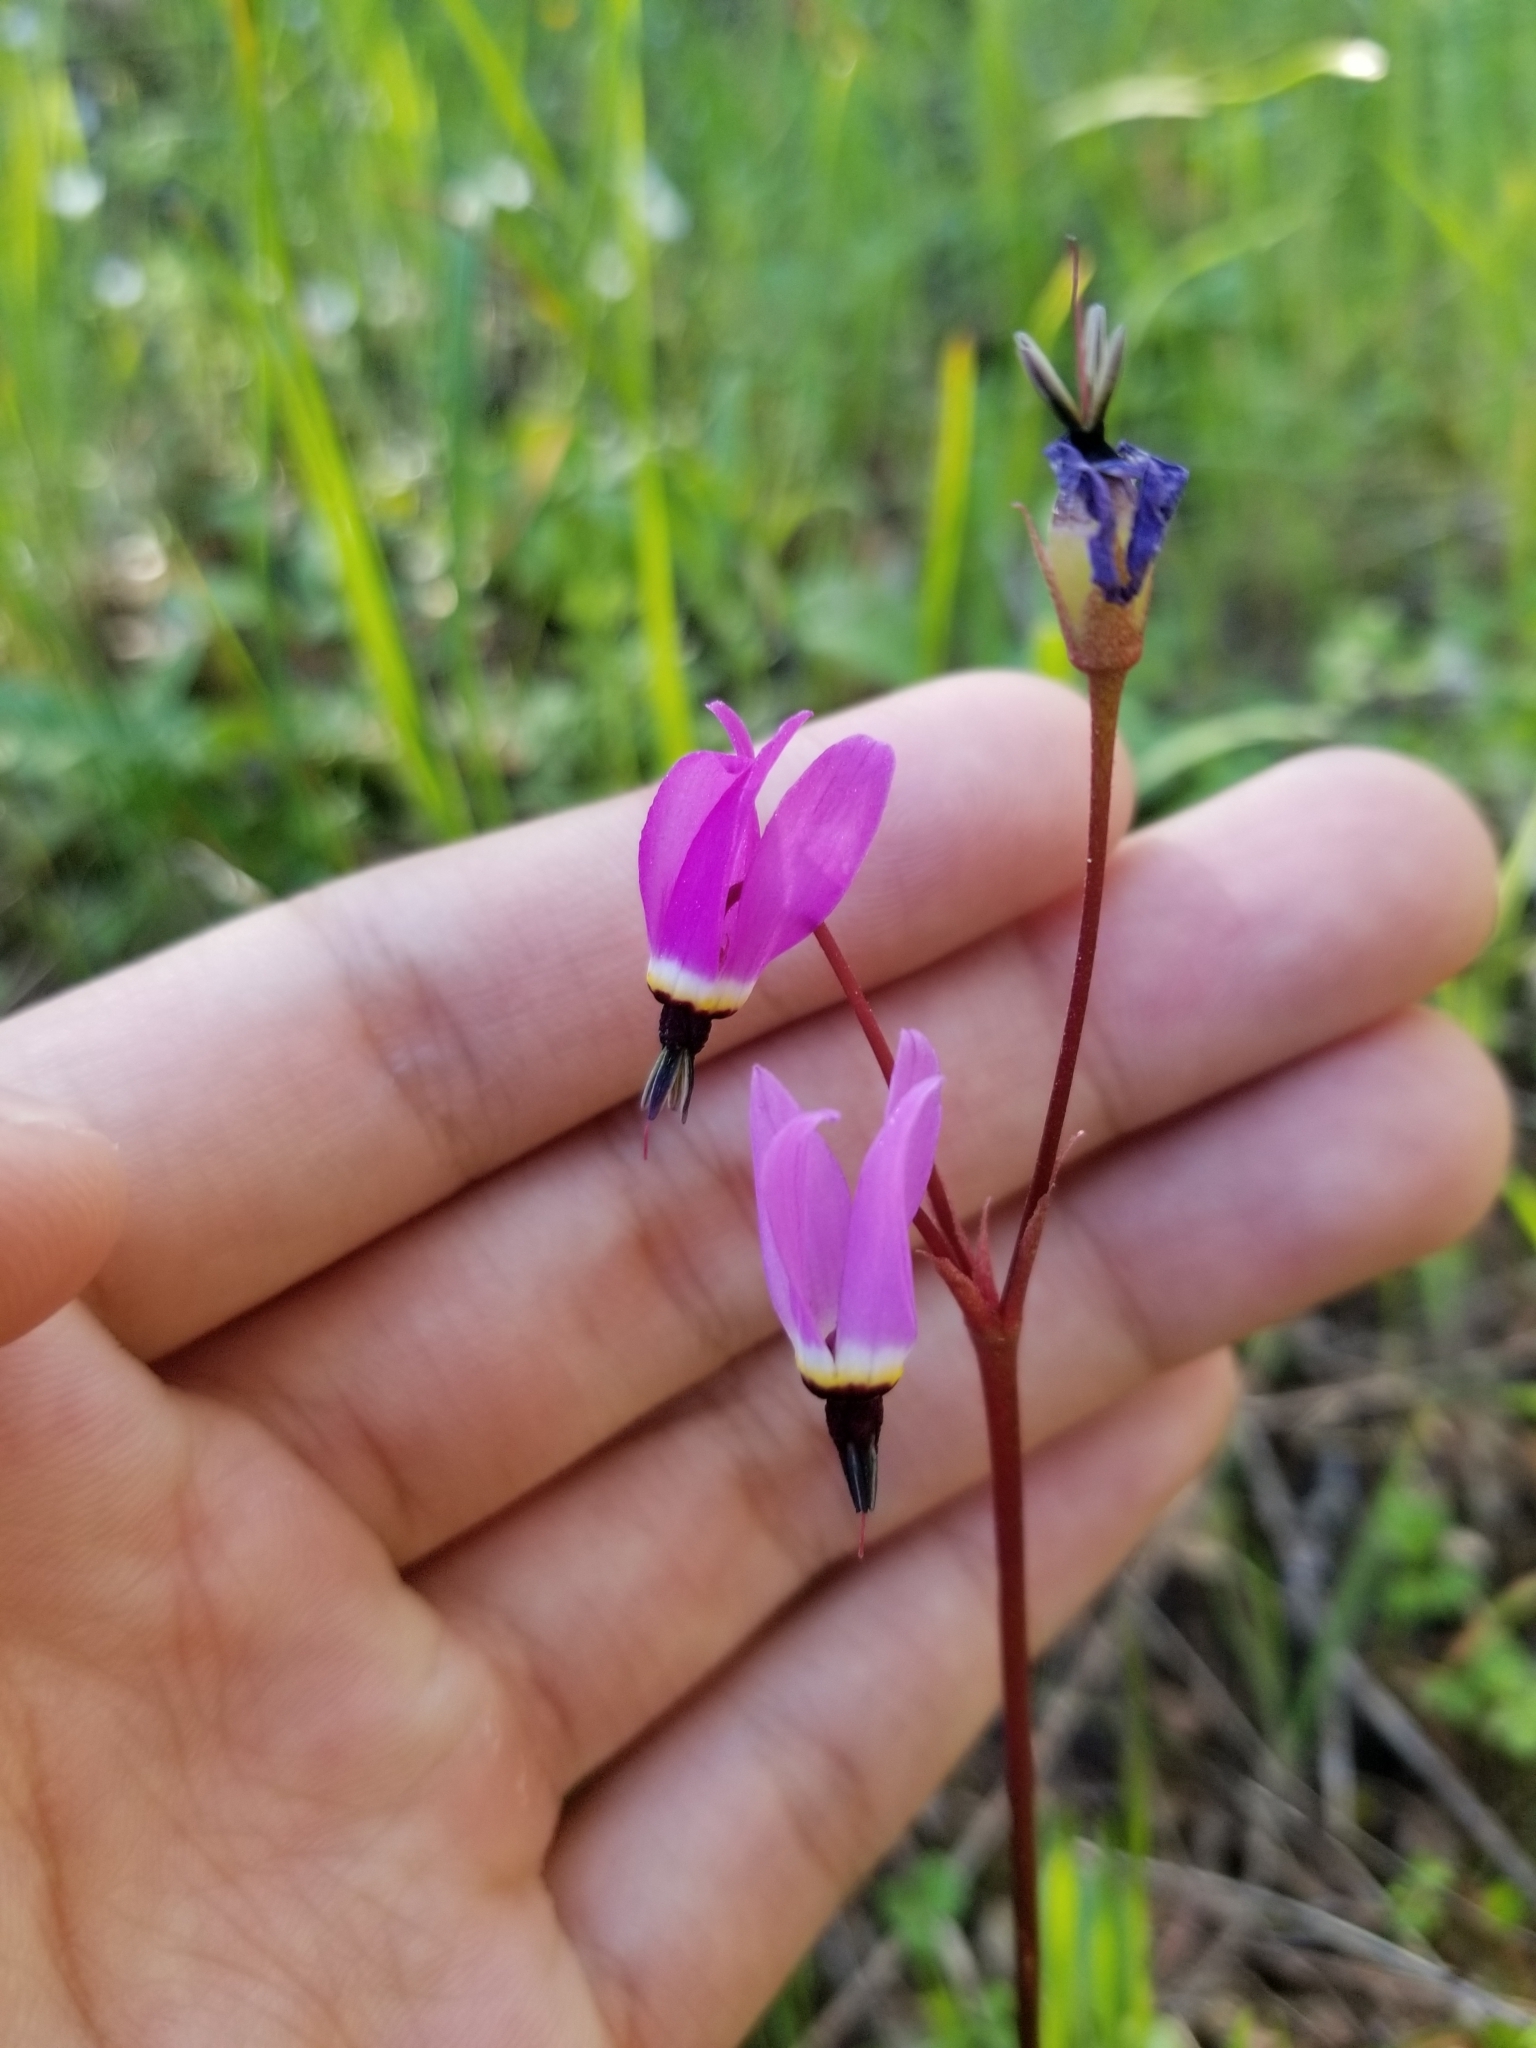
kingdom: Plantae
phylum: Tracheophyta
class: Magnoliopsida
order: Ericales
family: Primulaceae
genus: Dodecatheon
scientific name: Dodecatheon hendersonii
